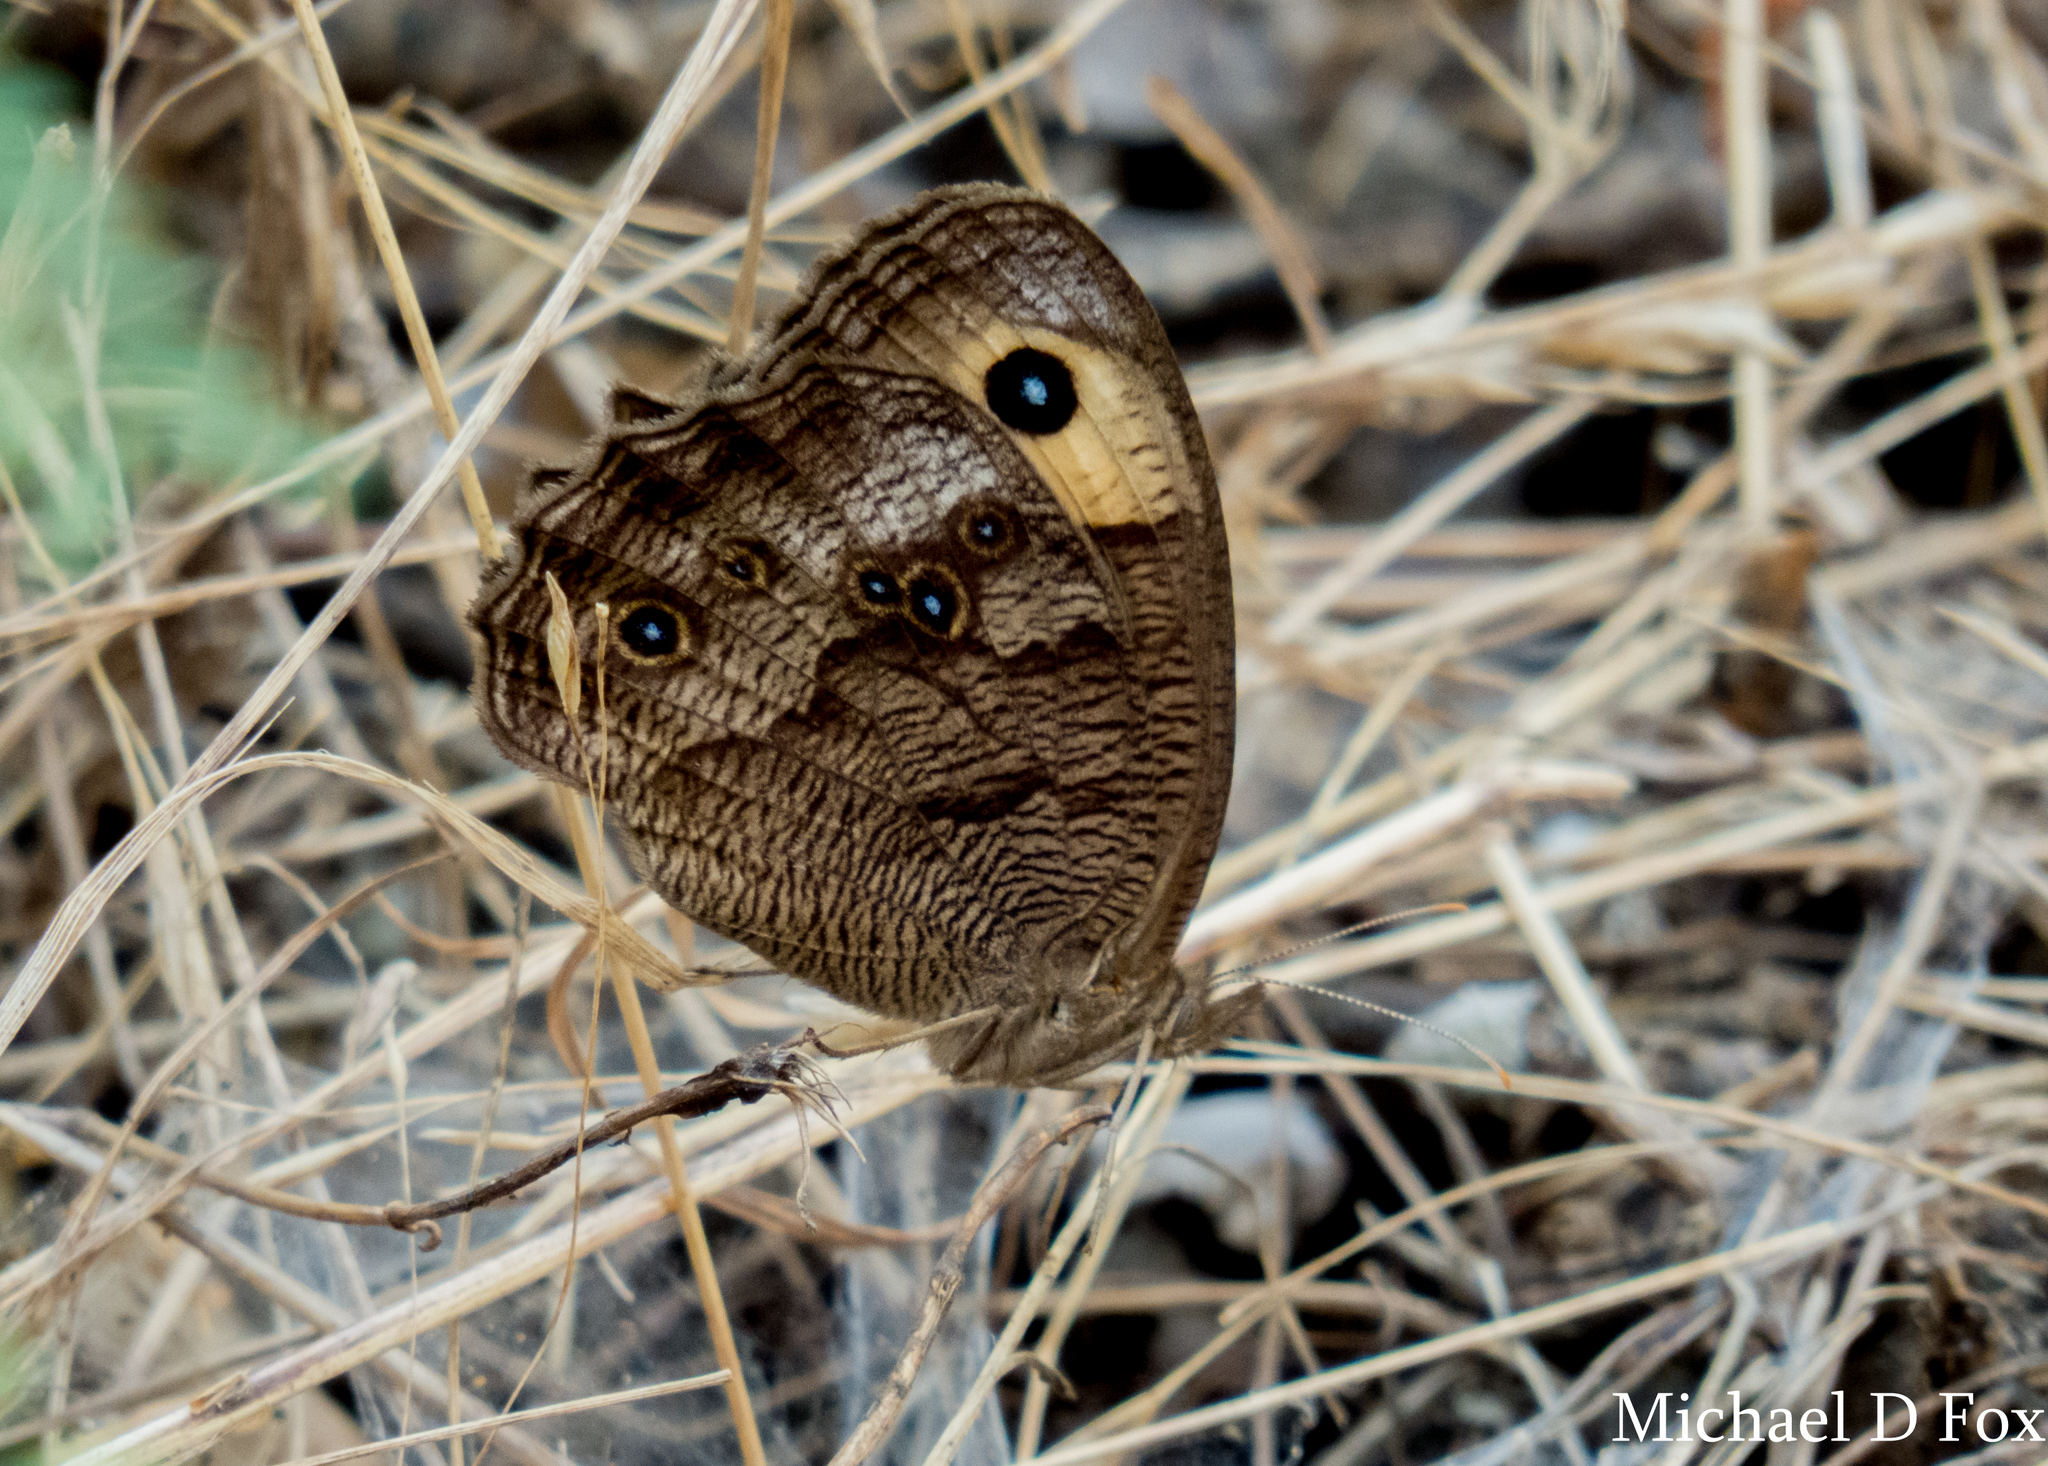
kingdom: Animalia
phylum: Arthropoda
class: Insecta
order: Lepidoptera
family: Nymphalidae
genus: Cercyonis
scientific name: Cercyonis pegala
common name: Common wood-nymph
